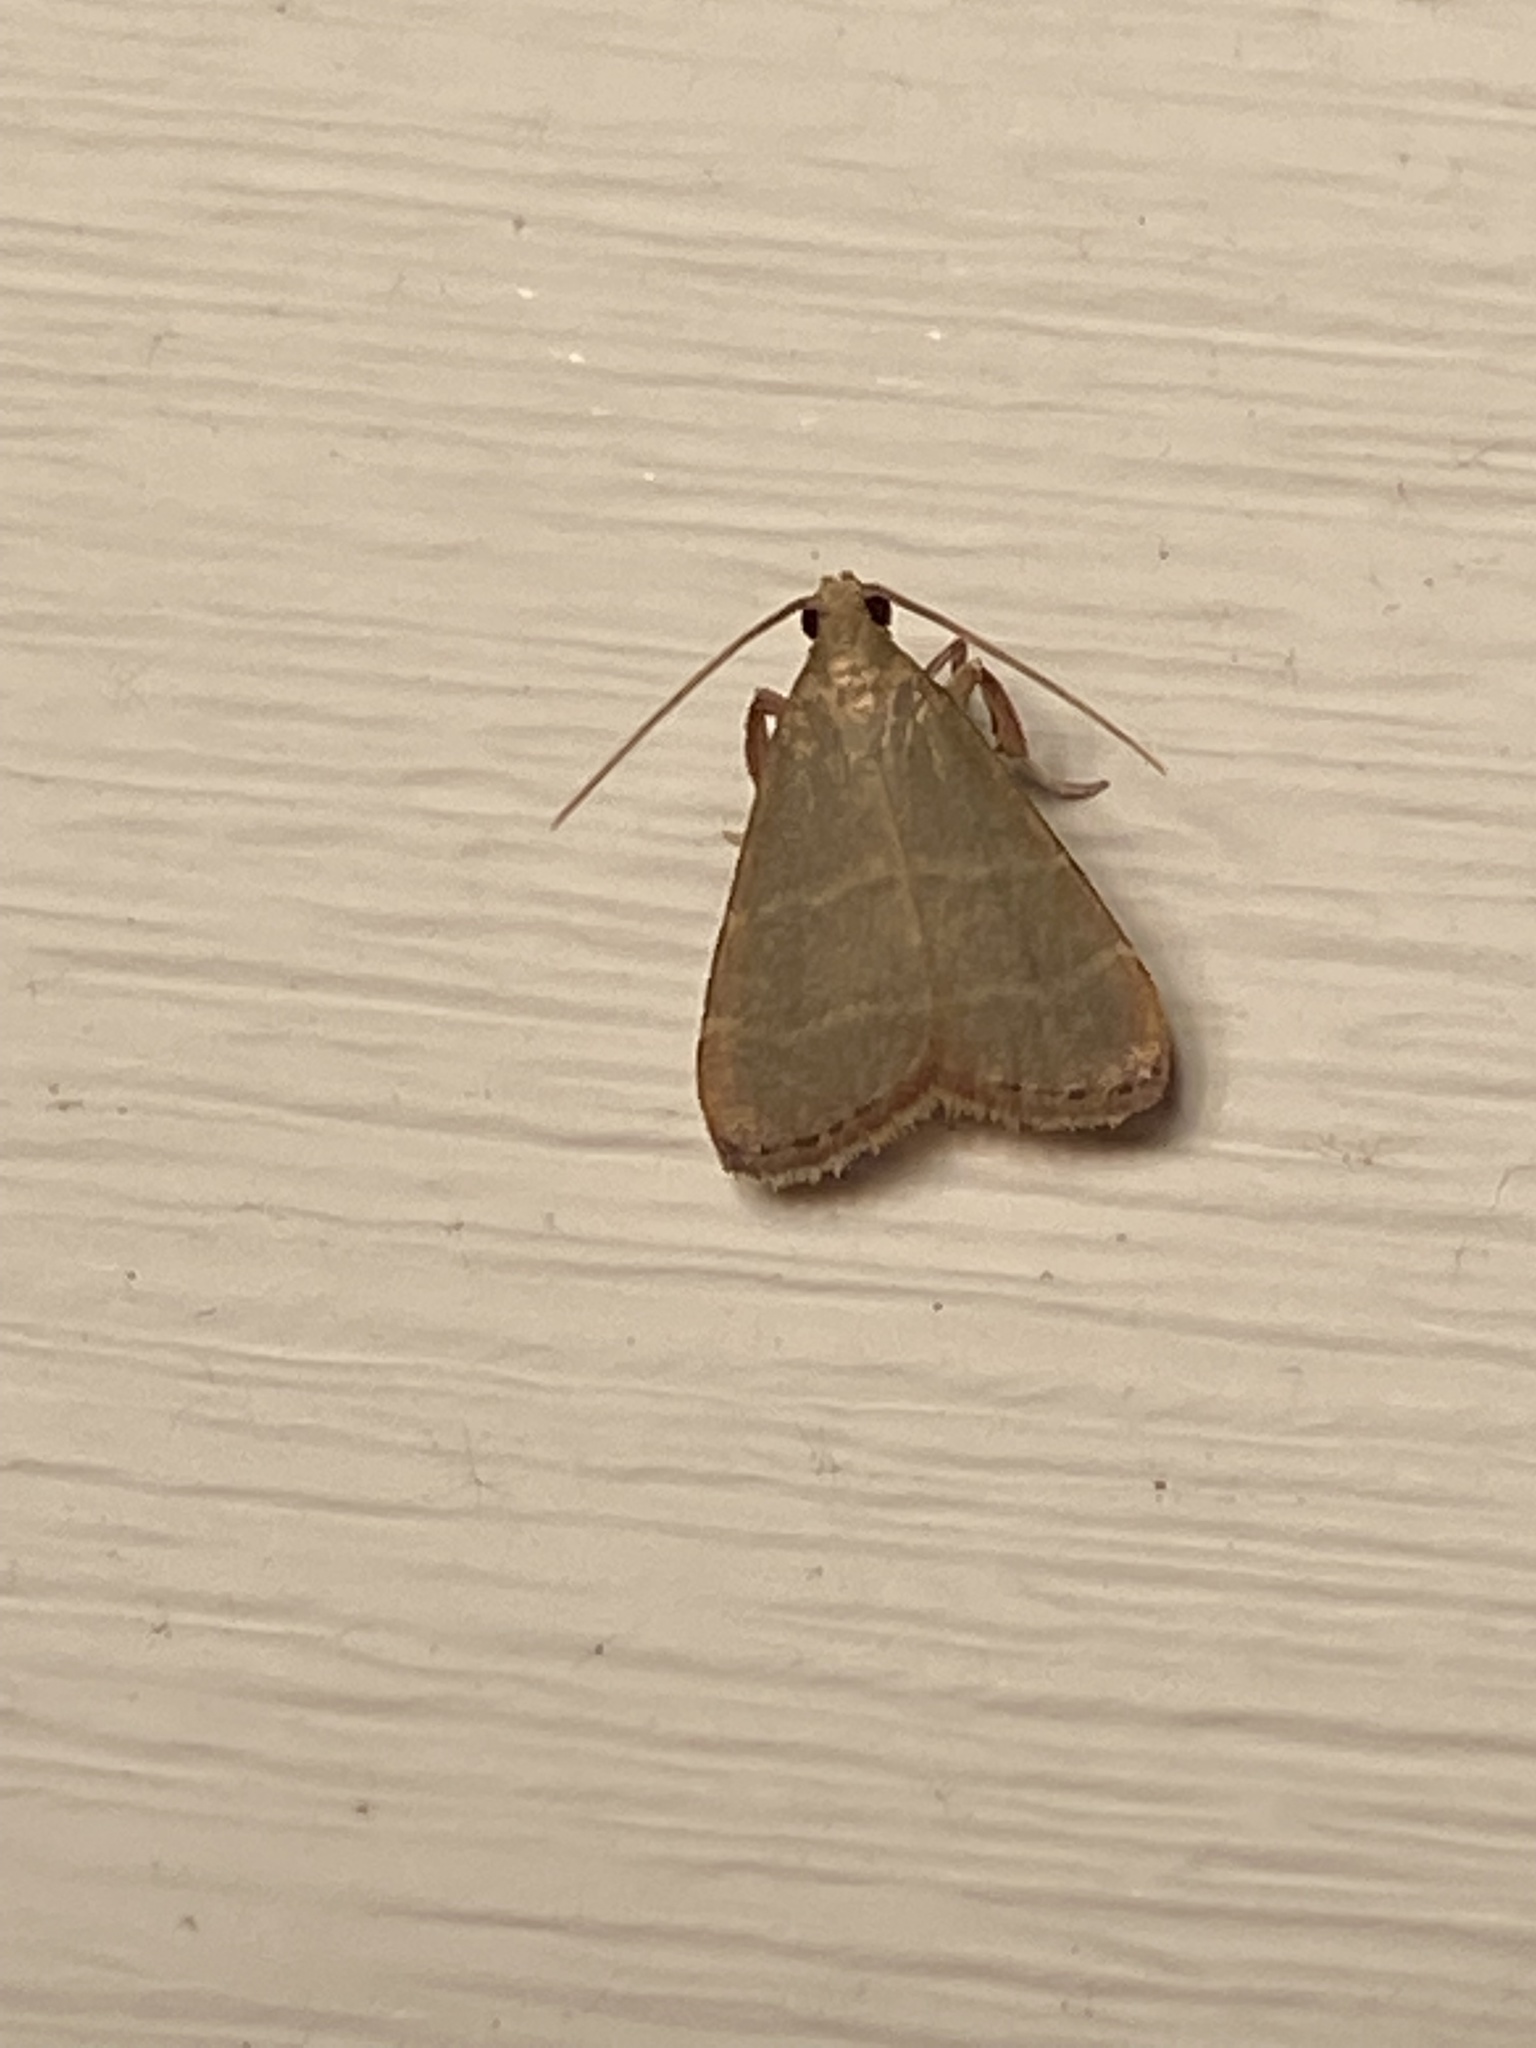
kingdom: Animalia
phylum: Arthropoda
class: Insecta
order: Lepidoptera
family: Pyralidae
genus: Arta
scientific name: Arta olivalis
